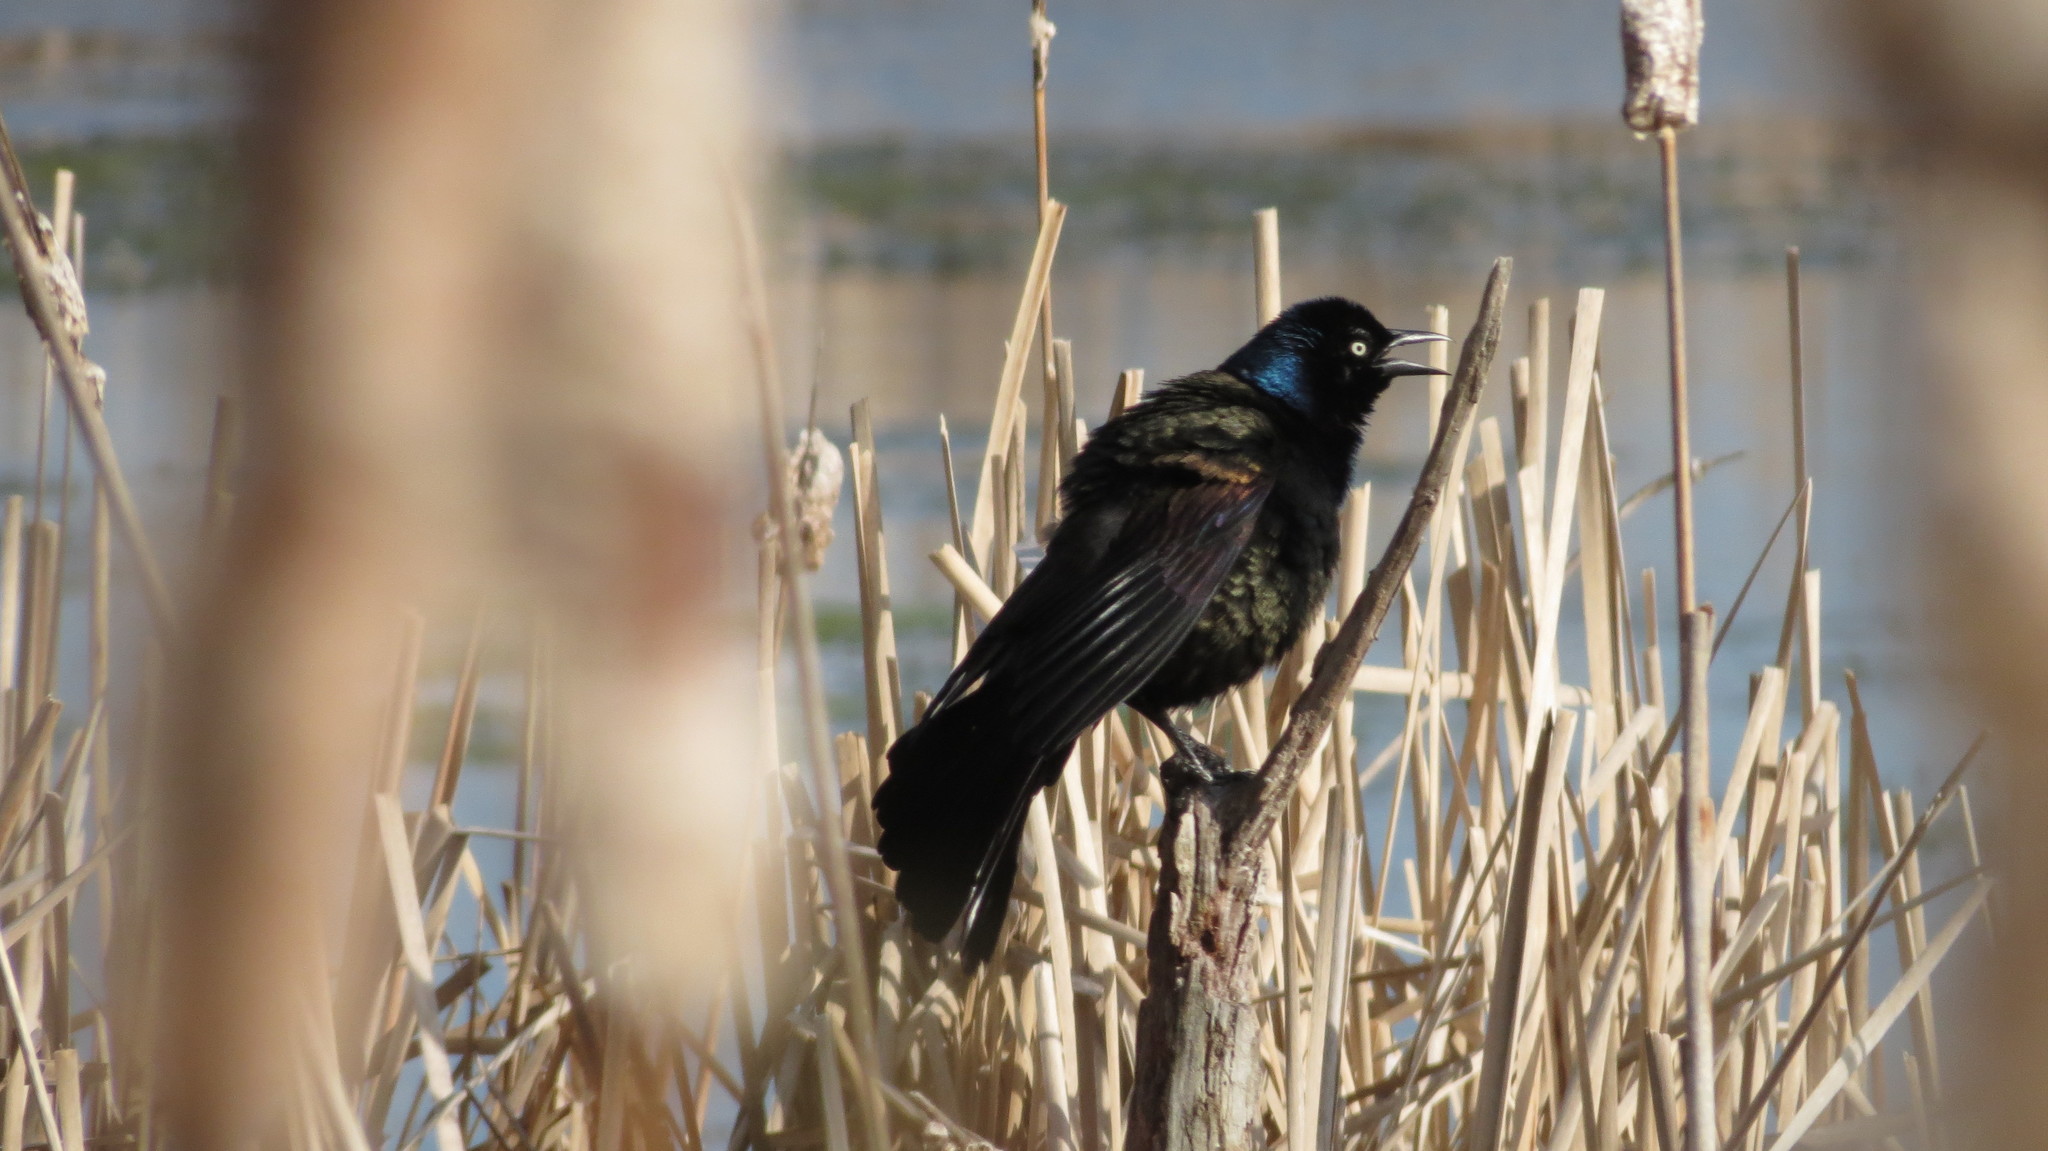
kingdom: Animalia
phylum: Chordata
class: Aves
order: Passeriformes
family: Icteridae
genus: Quiscalus
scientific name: Quiscalus quiscula
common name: Common grackle
